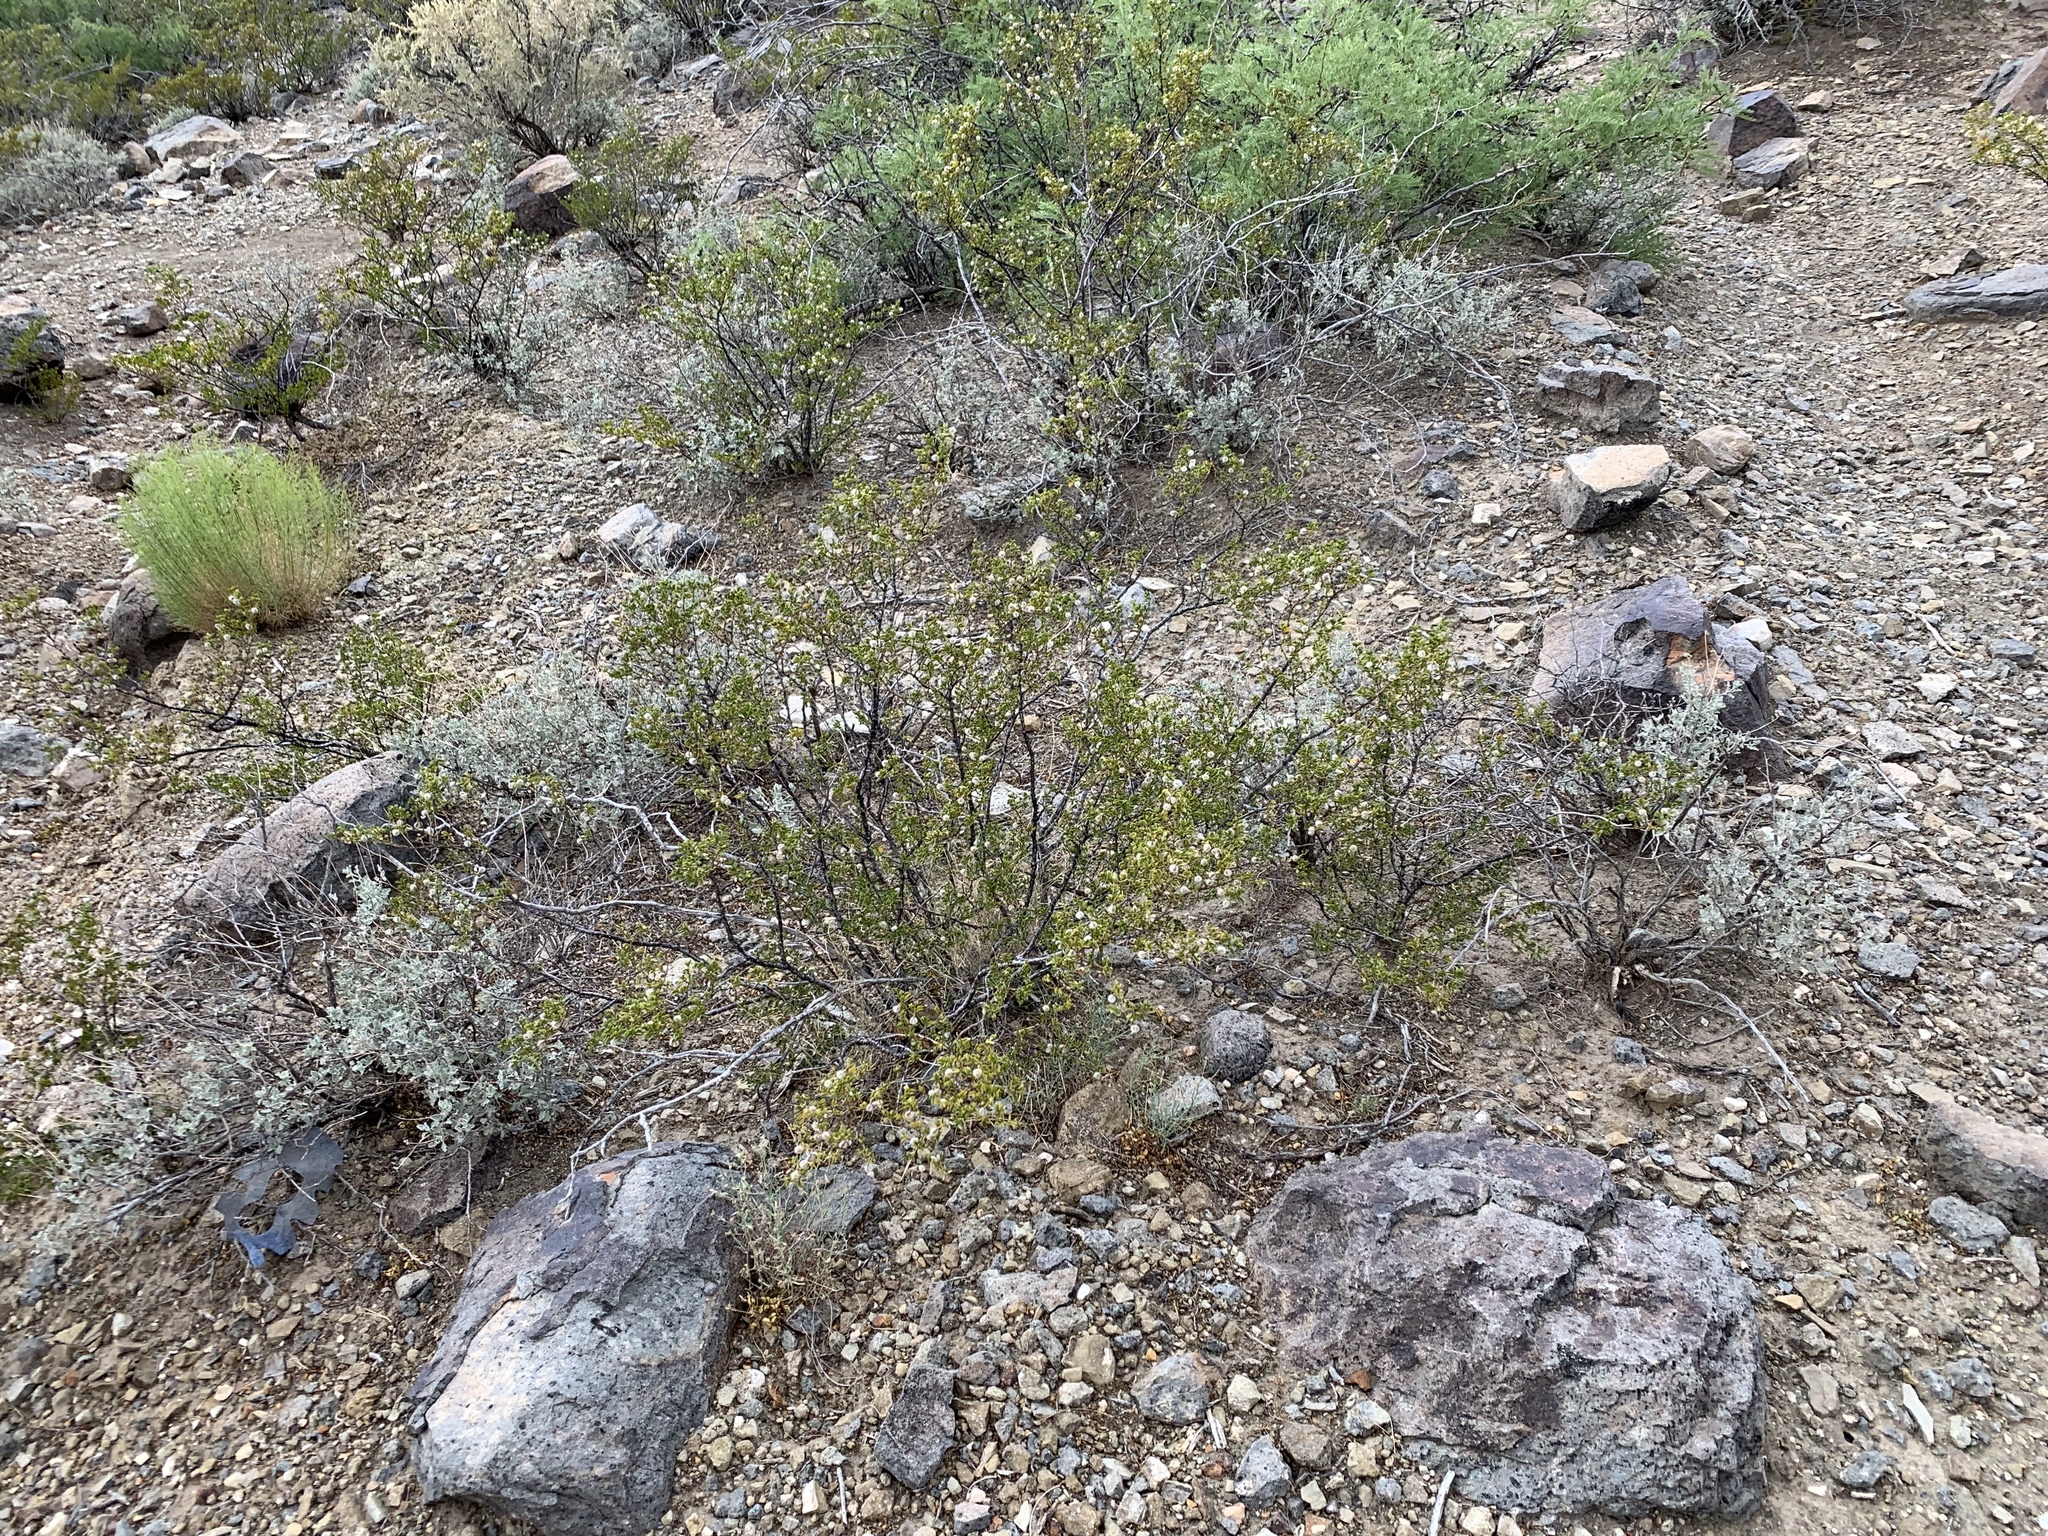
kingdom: Plantae
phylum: Tracheophyta
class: Magnoliopsida
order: Zygophyllales
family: Zygophyllaceae
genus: Larrea
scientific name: Larrea tridentata
